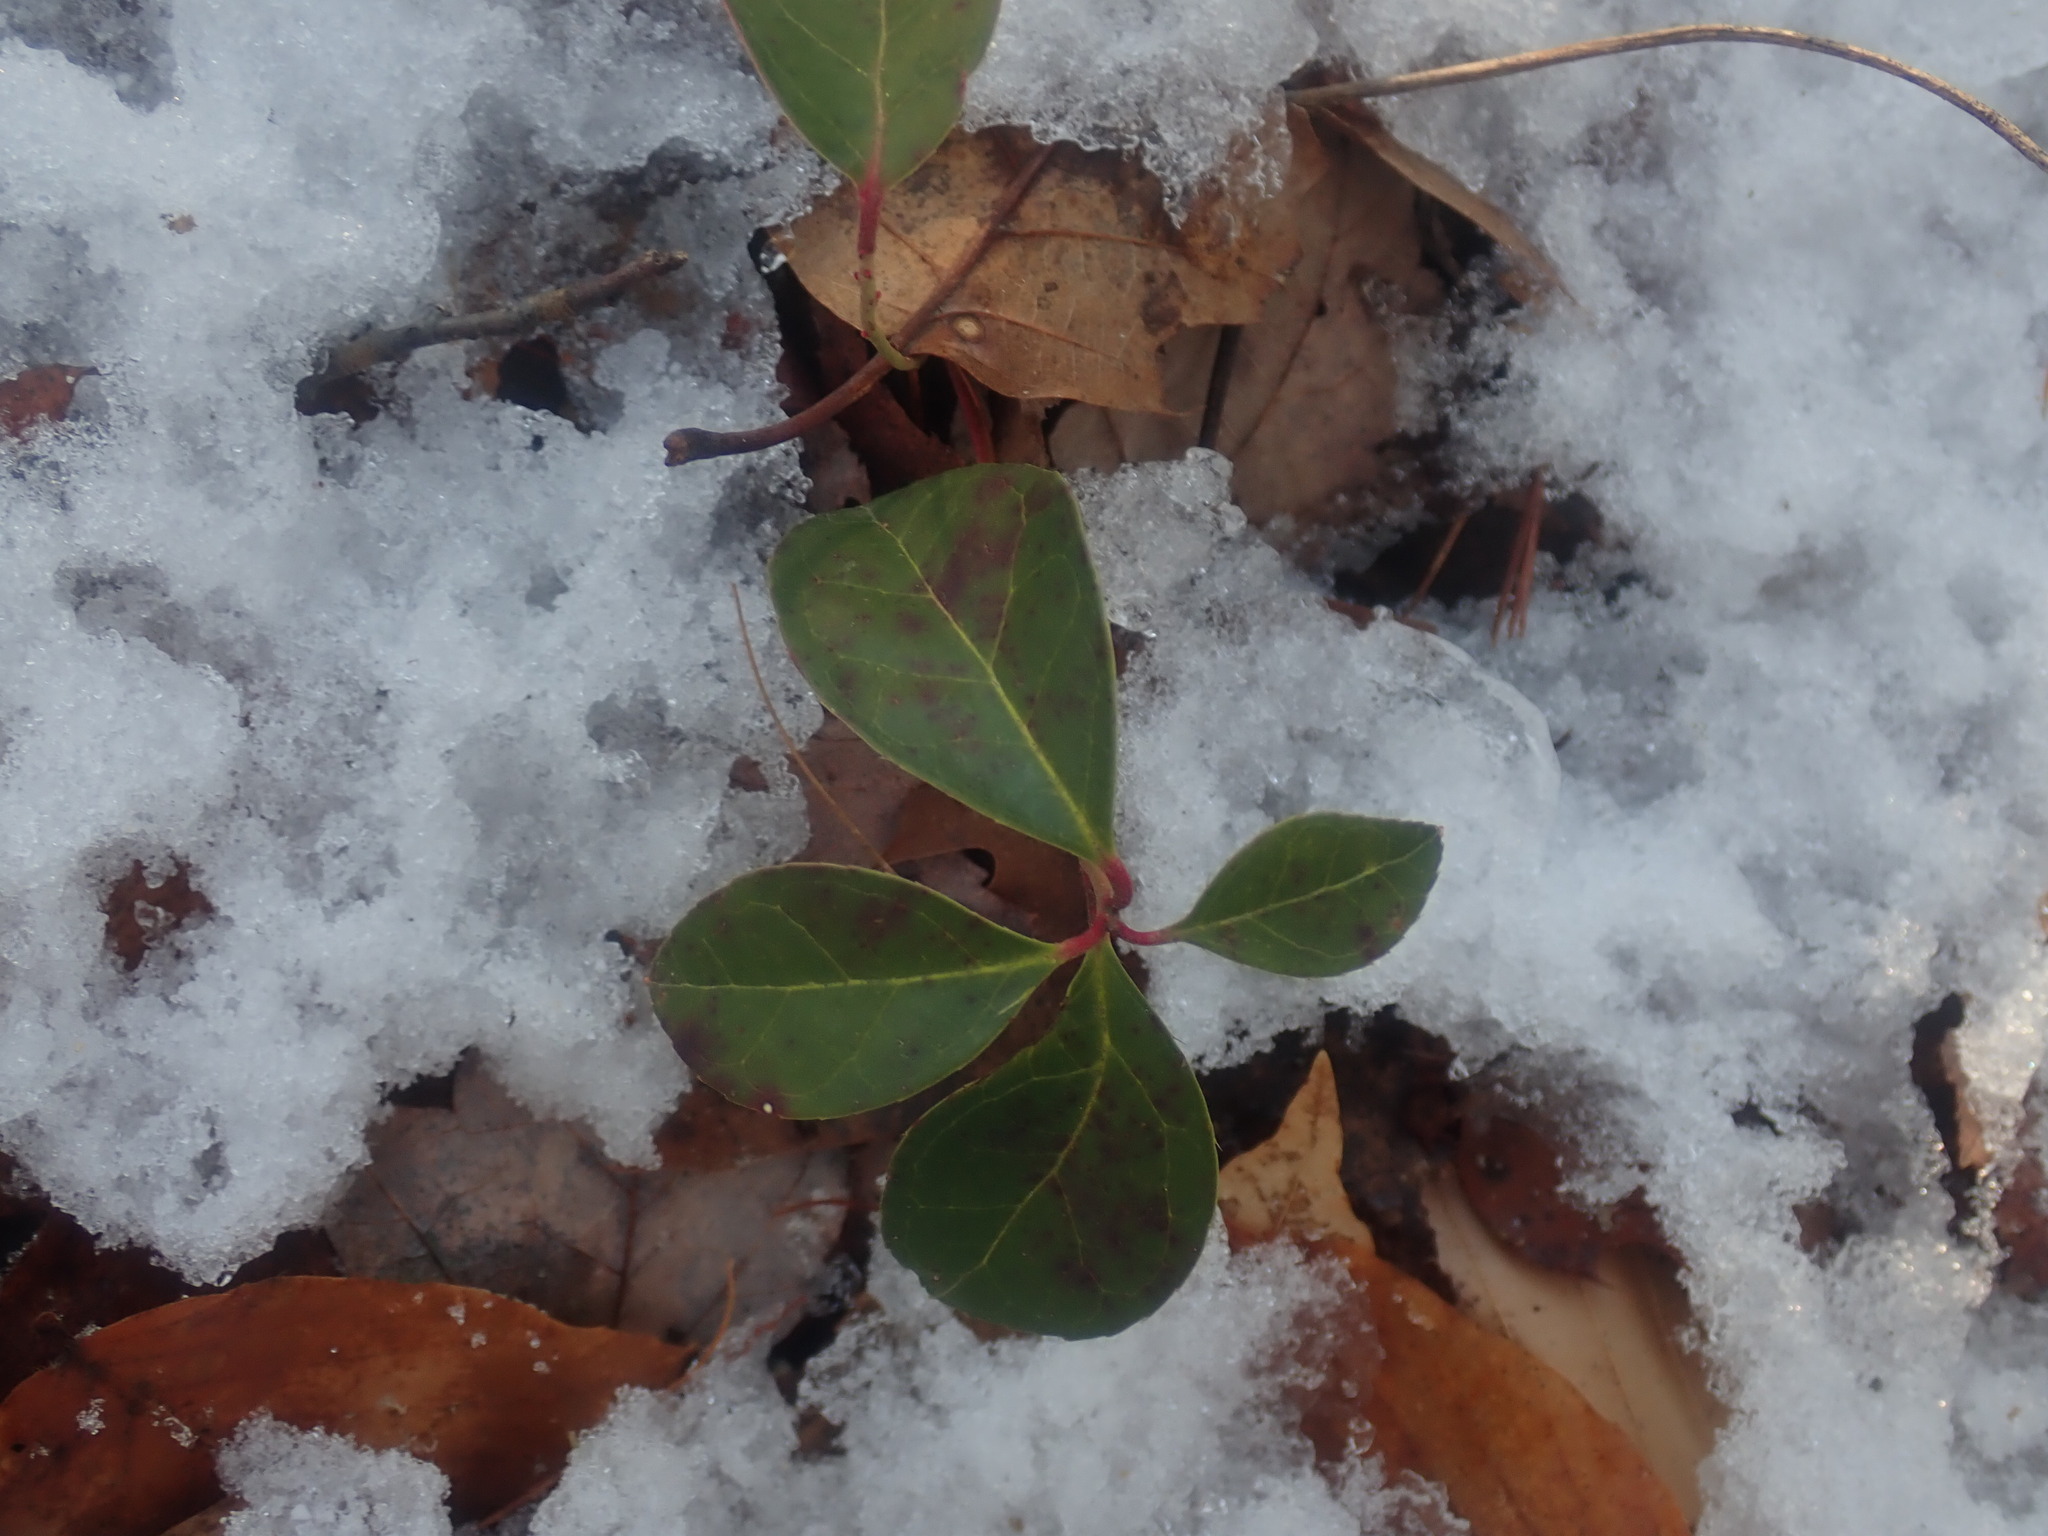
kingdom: Plantae
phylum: Tracheophyta
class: Magnoliopsida
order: Ericales
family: Ericaceae
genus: Gaultheria
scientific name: Gaultheria procumbens
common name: Checkerberry
